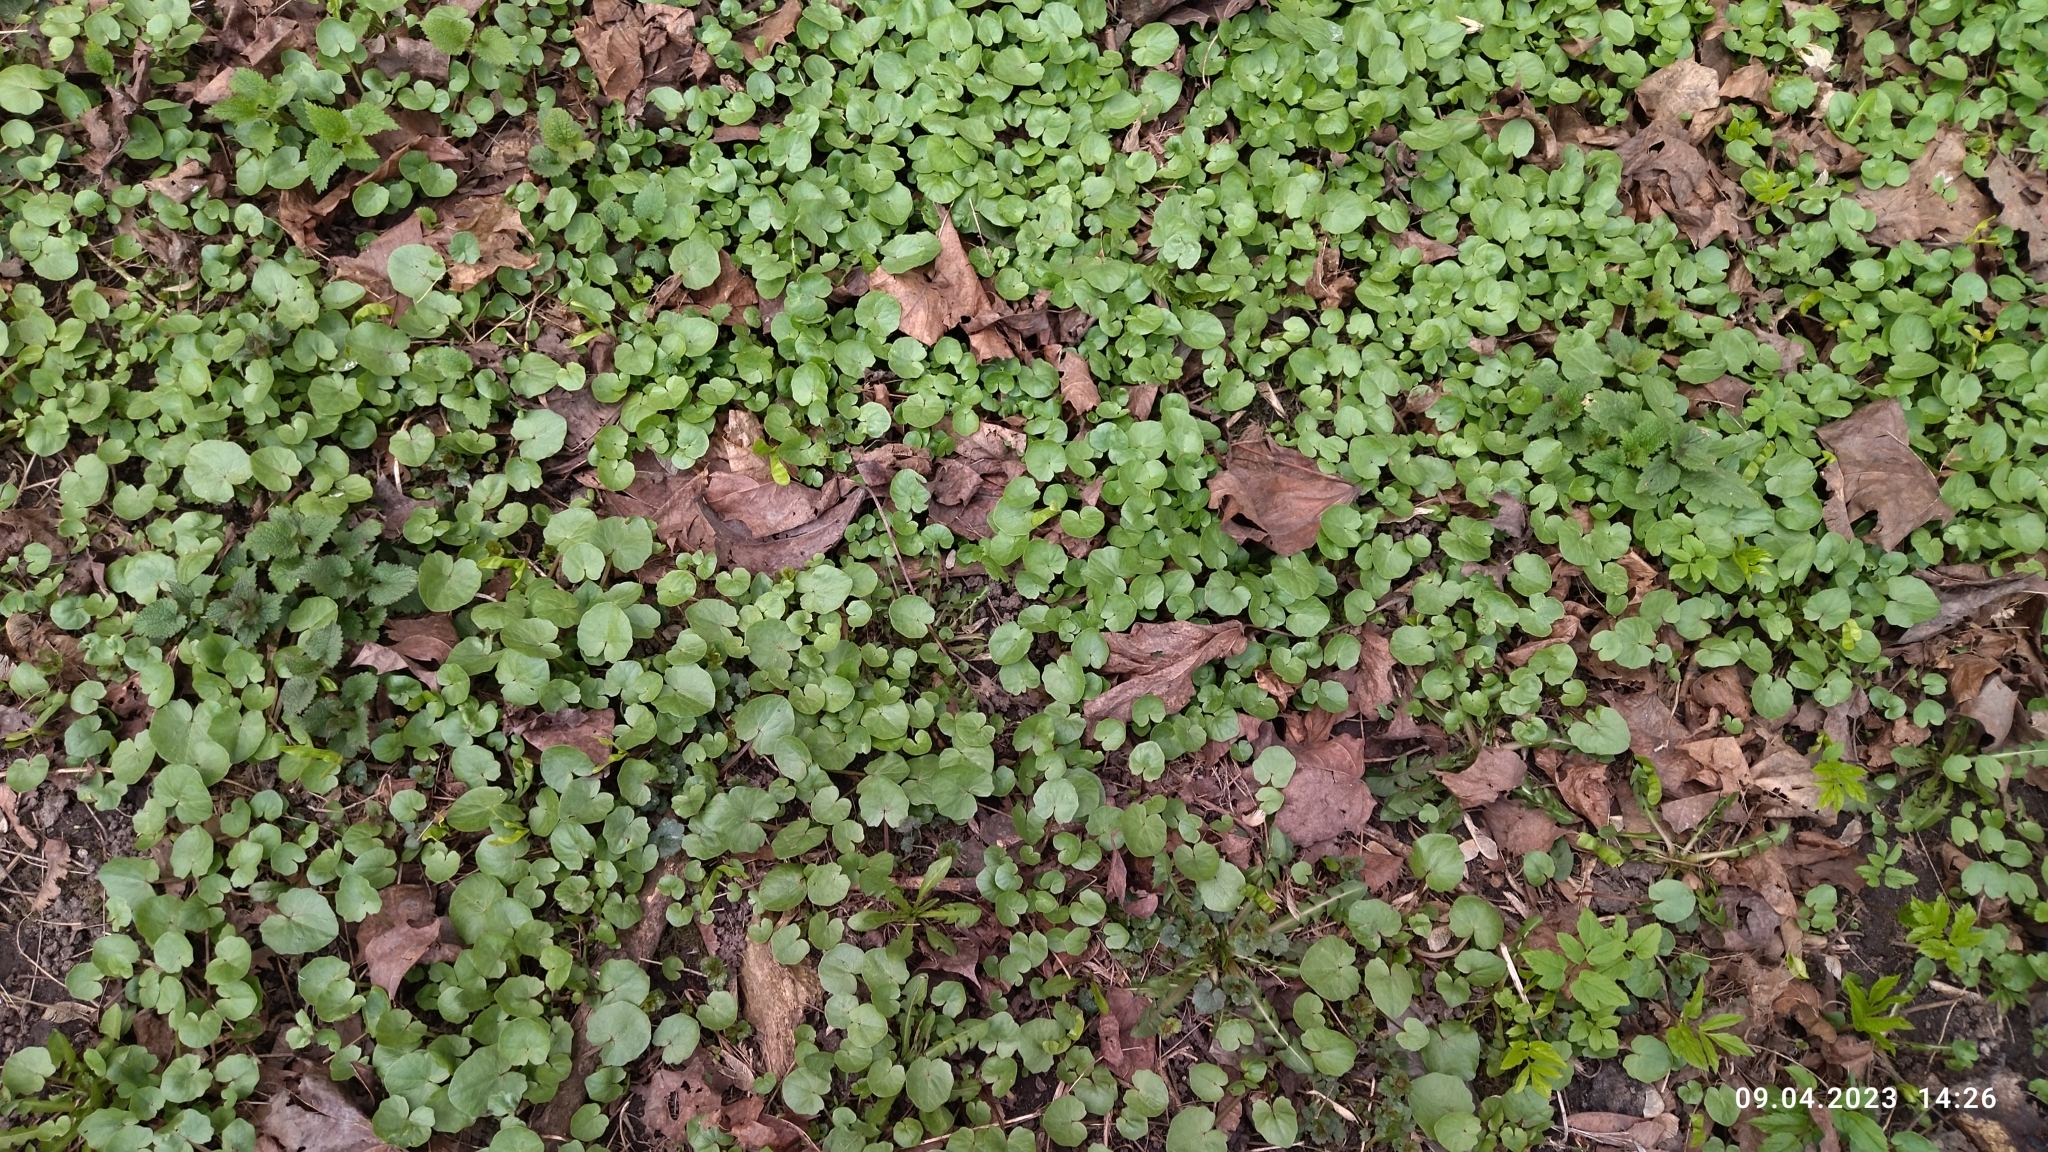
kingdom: Plantae
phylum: Tracheophyta
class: Magnoliopsida
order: Ranunculales
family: Ranunculaceae
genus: Ficaria
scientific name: Ficaria verna
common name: Lesser celandine
